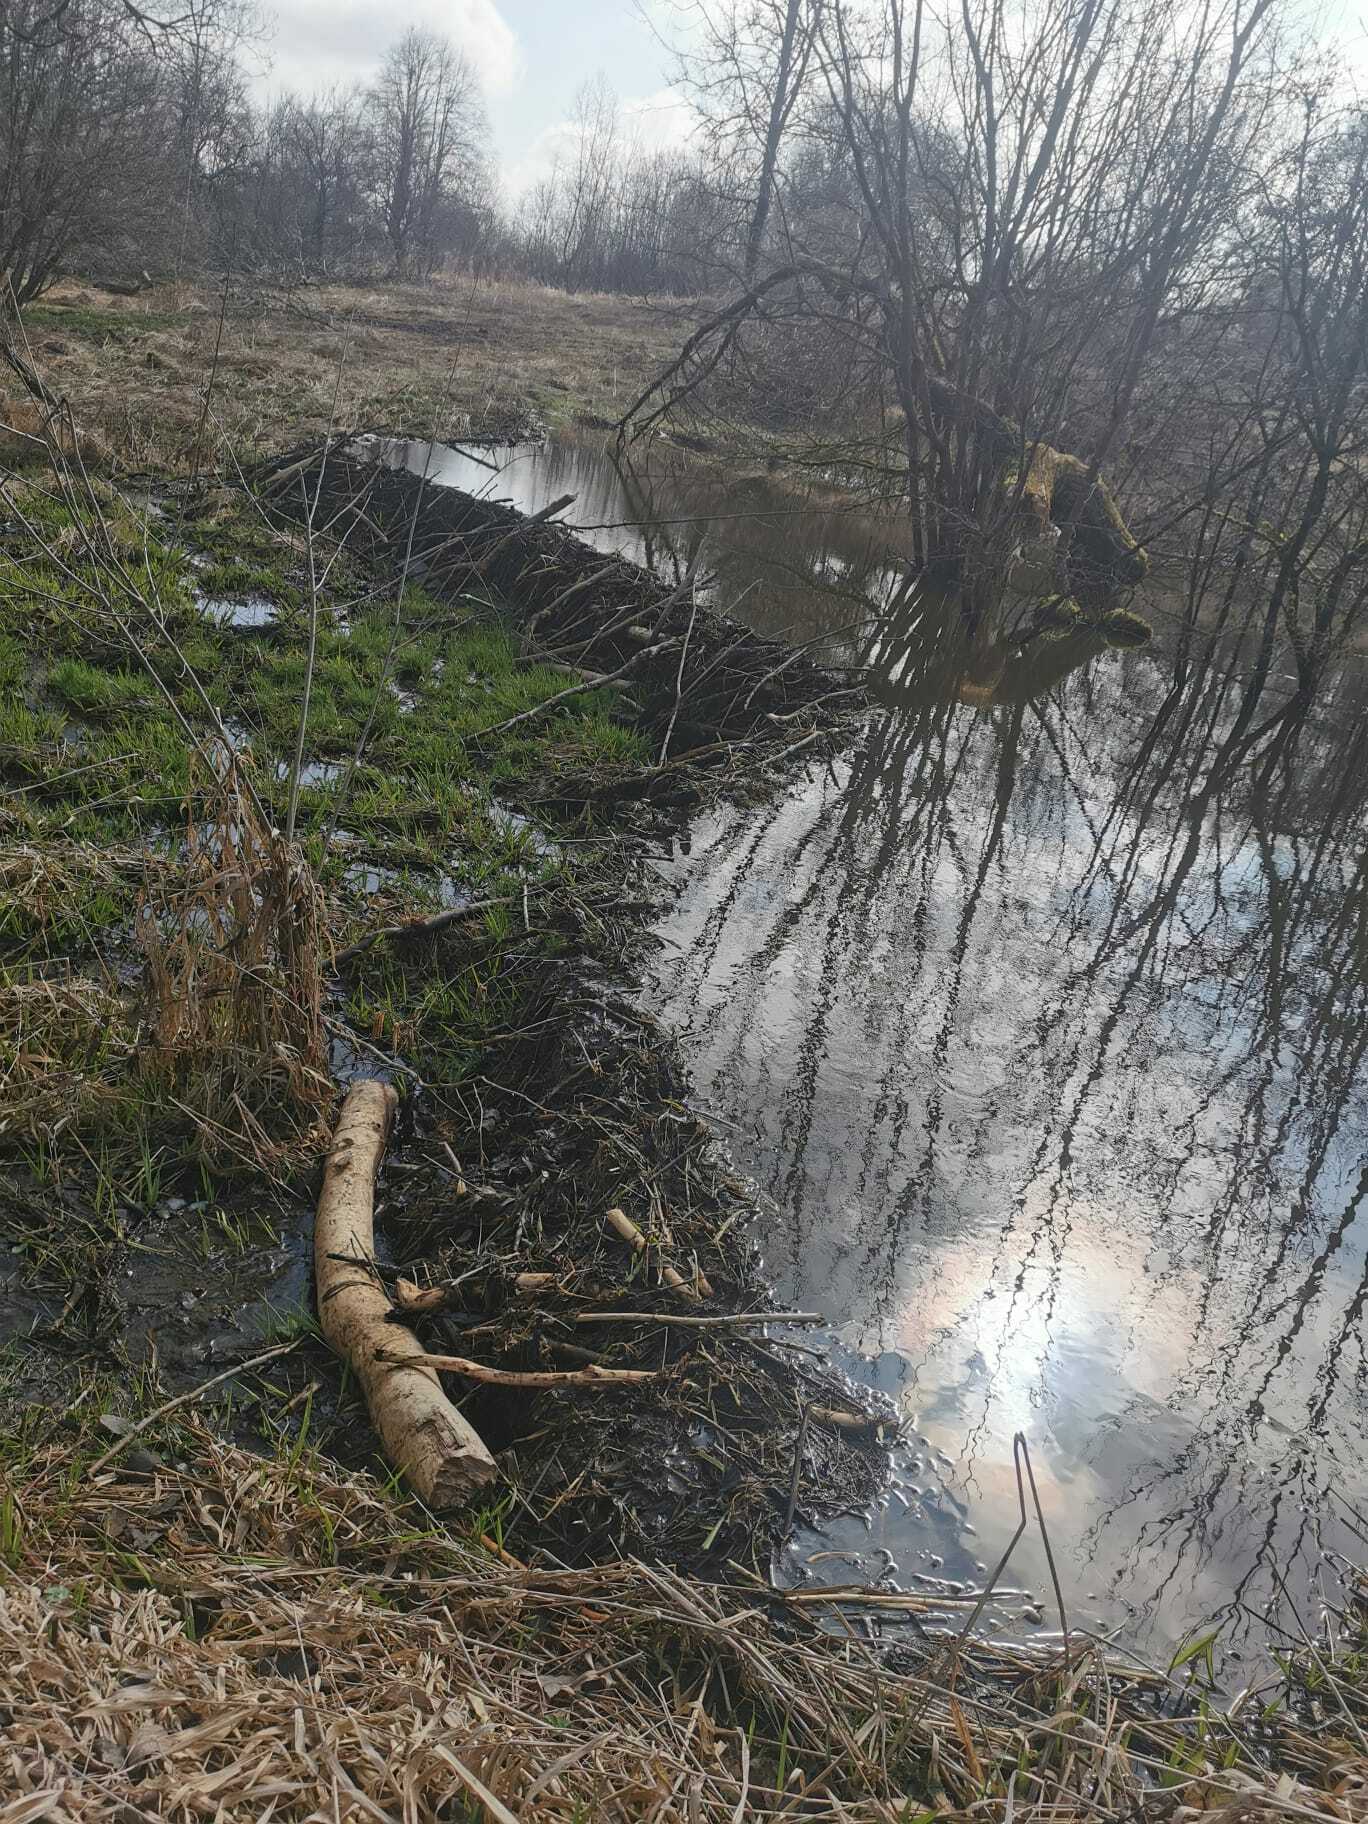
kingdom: Animalia
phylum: Chordata
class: Mammalia
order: Rodentia
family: Castoridae
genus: Castor
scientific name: Castor fiber
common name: Eurasian beaver
